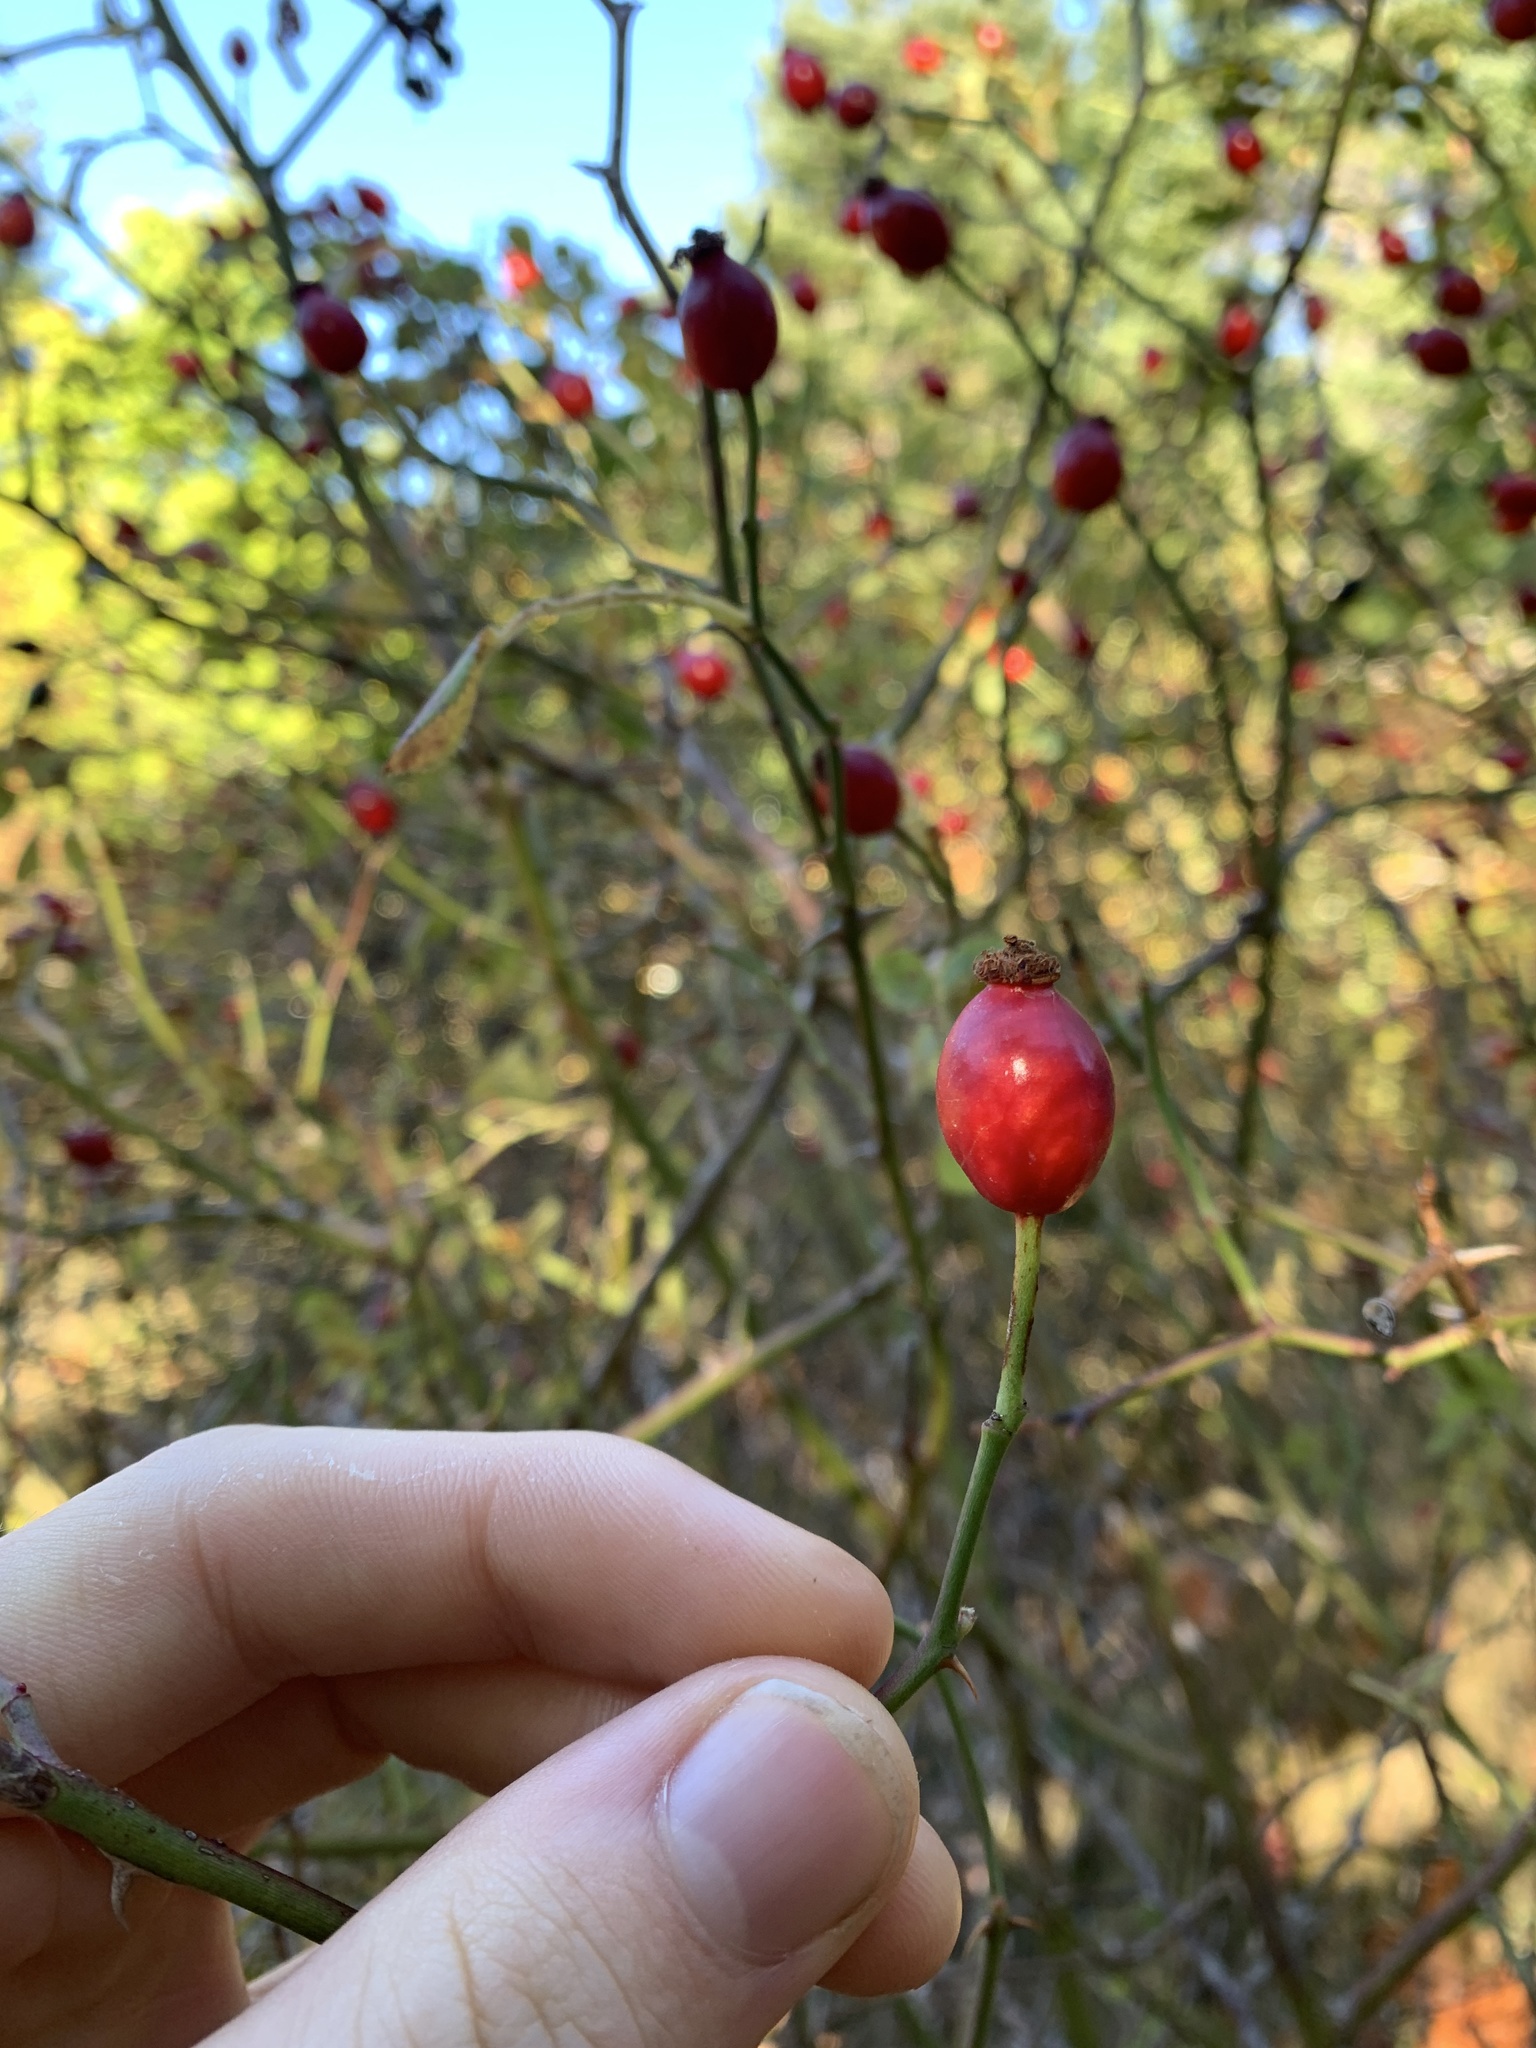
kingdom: Plantae
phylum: Tracheophyta
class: Magnoliopsida
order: Rosales
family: Rosaceae
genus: Rosa
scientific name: Rosa canina
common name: Dog rose
